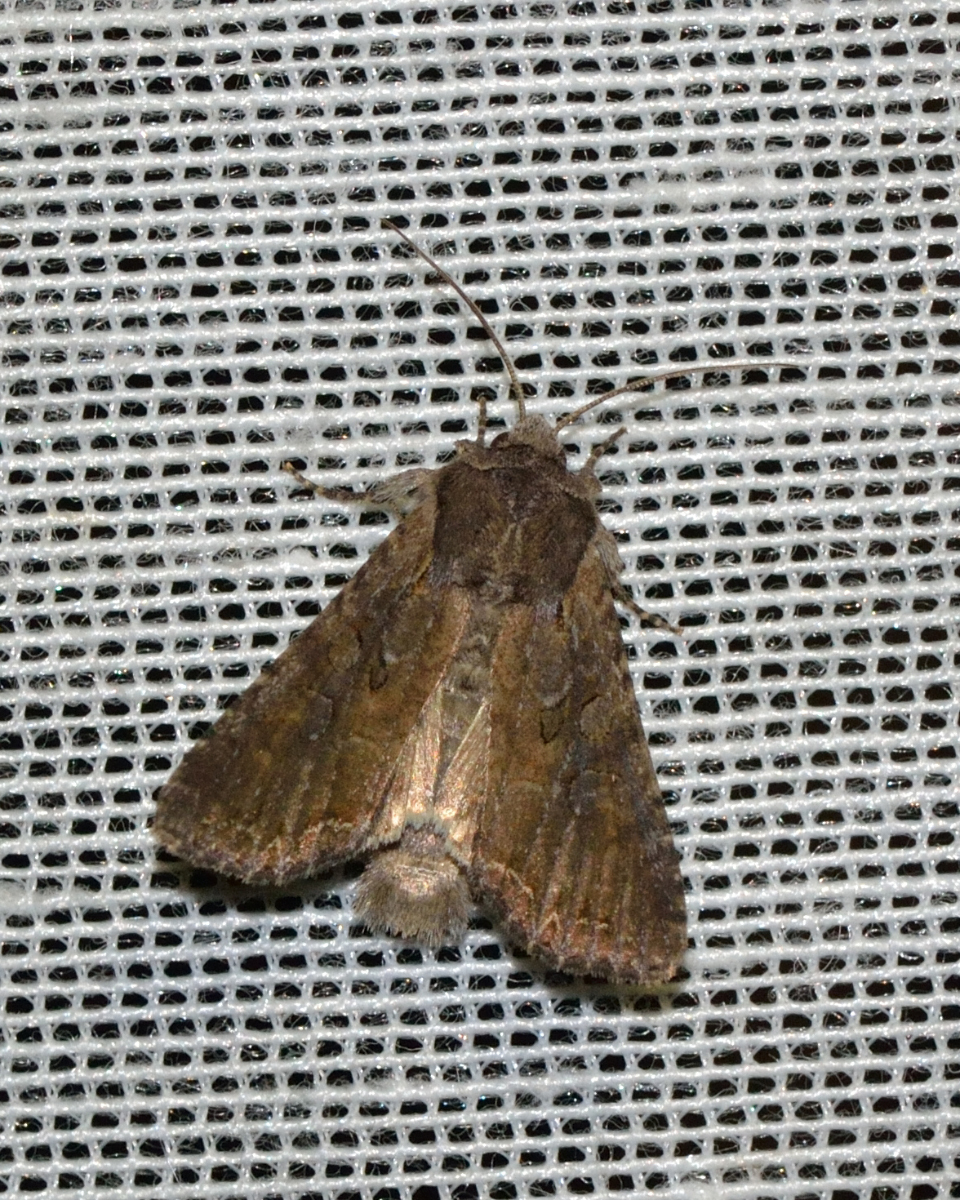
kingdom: Animalia
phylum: Arthropoda
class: Insecta
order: Lepidoptera
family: Noctuidae
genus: Lacanobia
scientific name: Lacanobia suasa
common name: Dog's tooth
